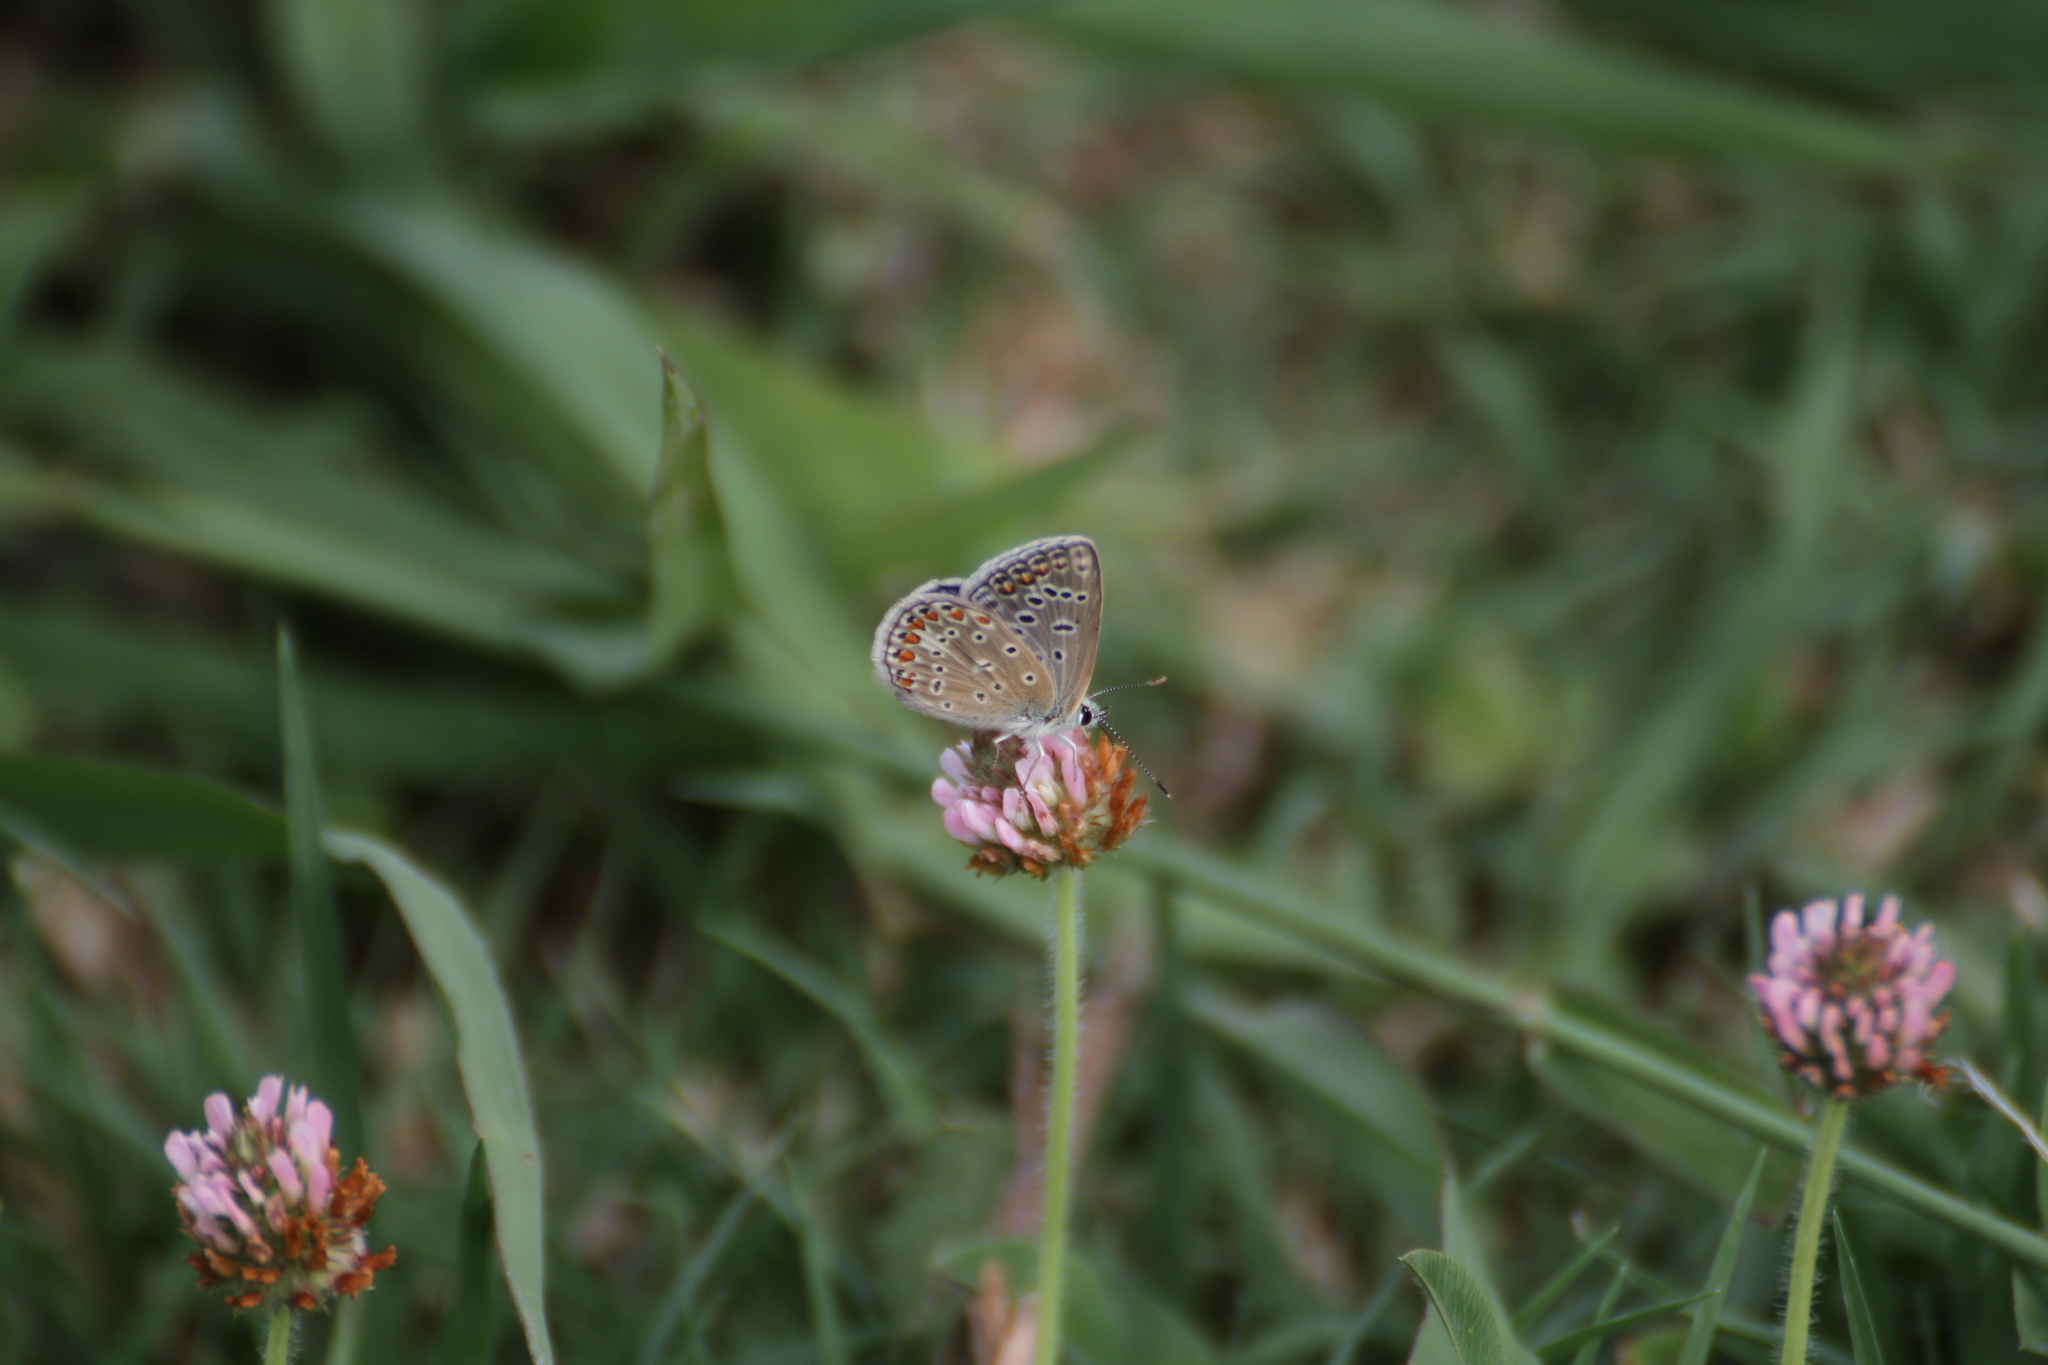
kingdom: Animalia
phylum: Arthropoda
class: Insecta
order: Lepidoptera
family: Lycaenidae
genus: Polyommatus
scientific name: Polyommatus icarus
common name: Common blue
